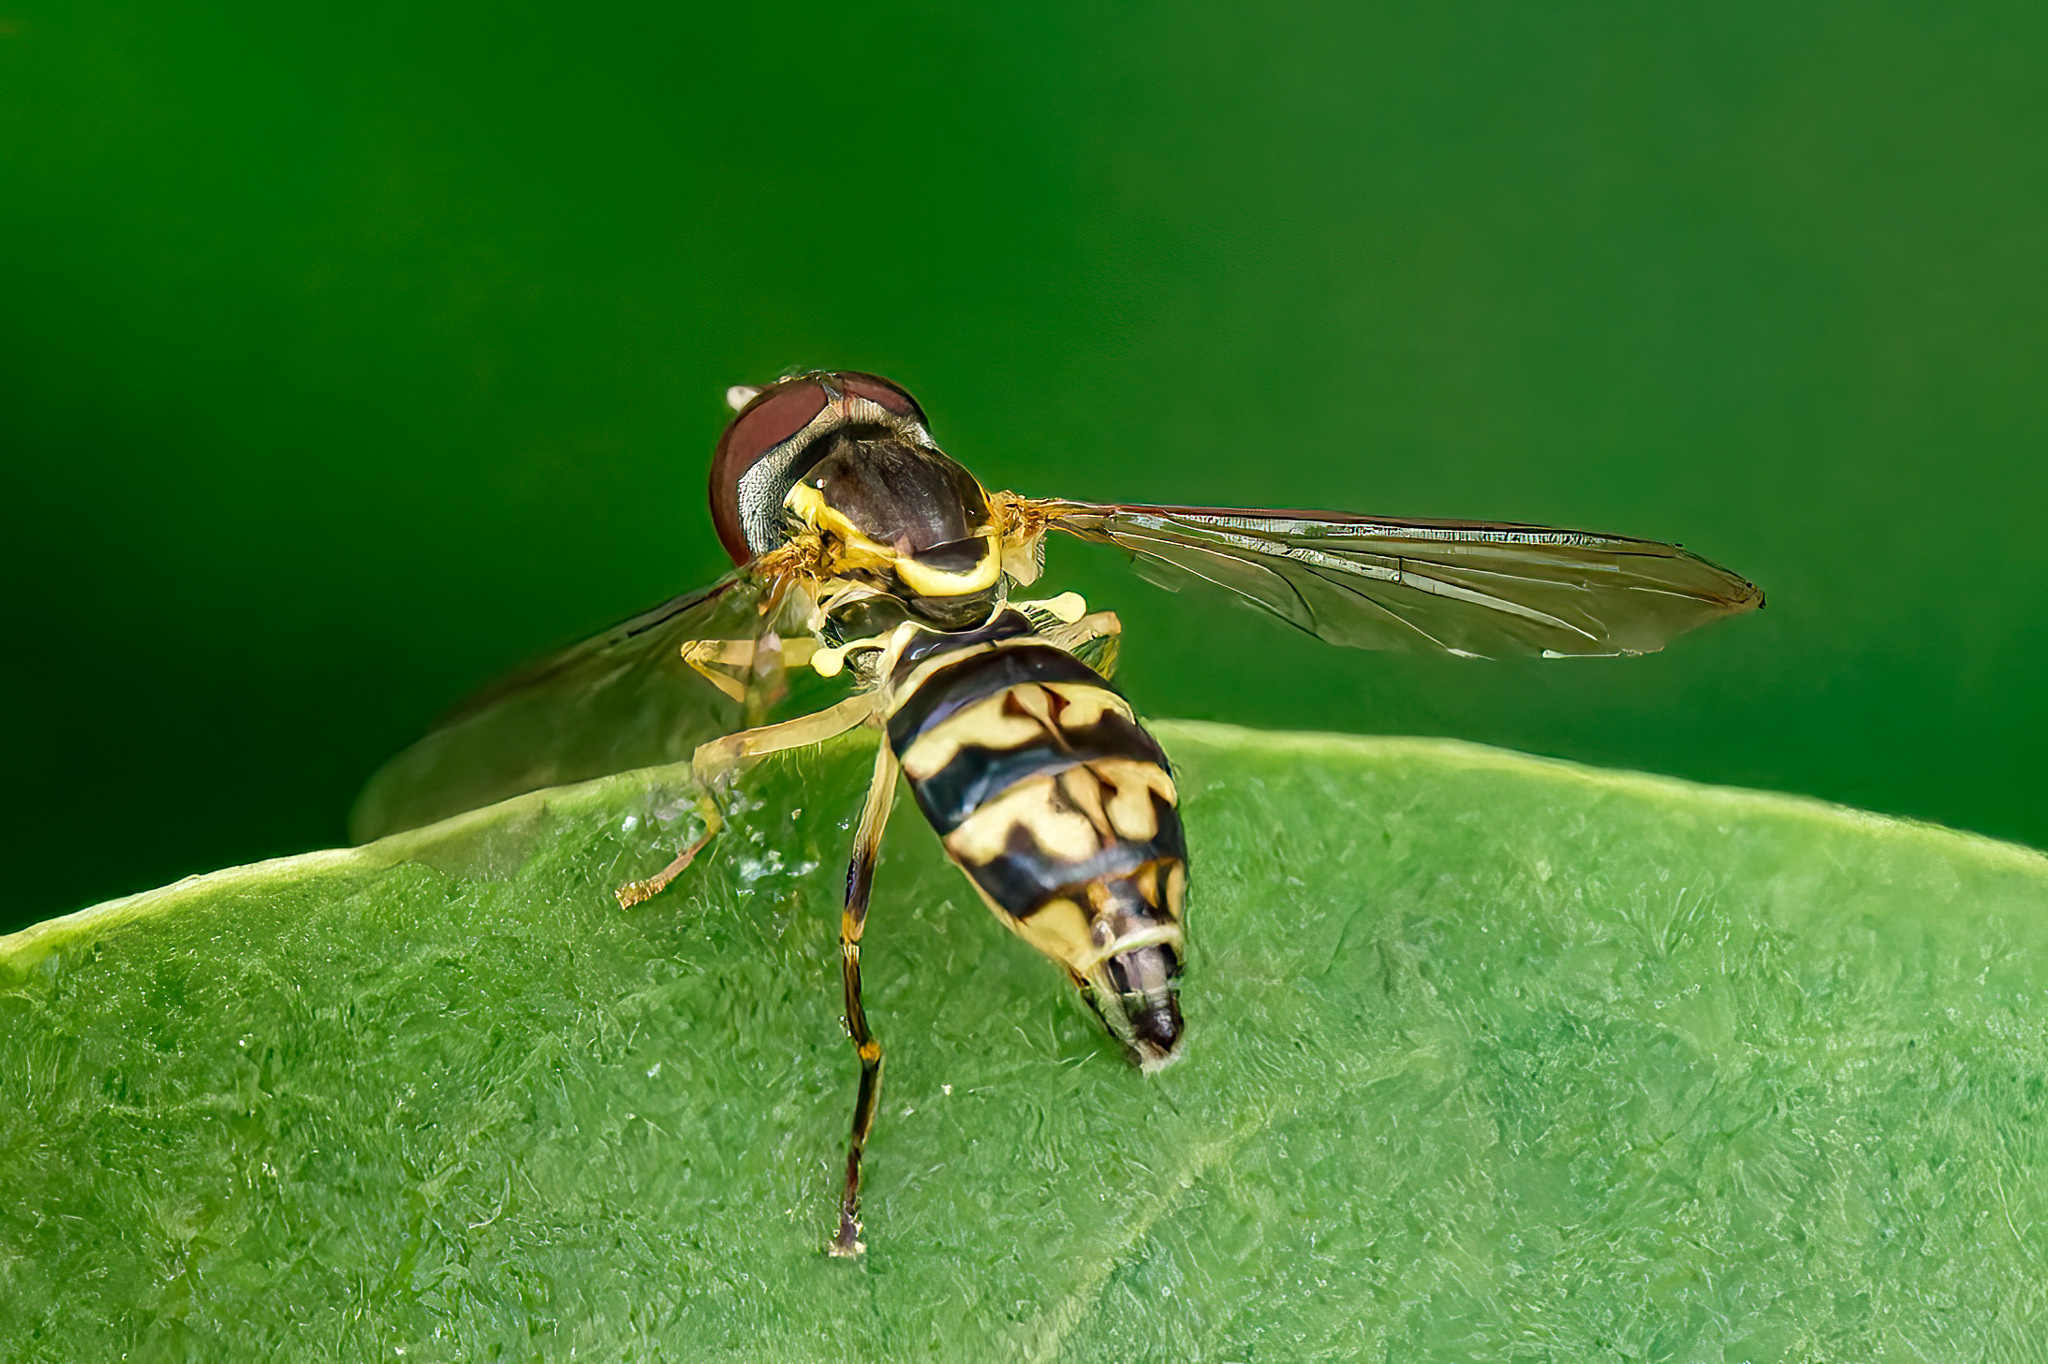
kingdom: Animalia
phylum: Arthropoda
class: Insecta
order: Diptera
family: Syrphidae
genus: Toxomerus
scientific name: Toxomerus geminatus
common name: Eastern calligrapher
